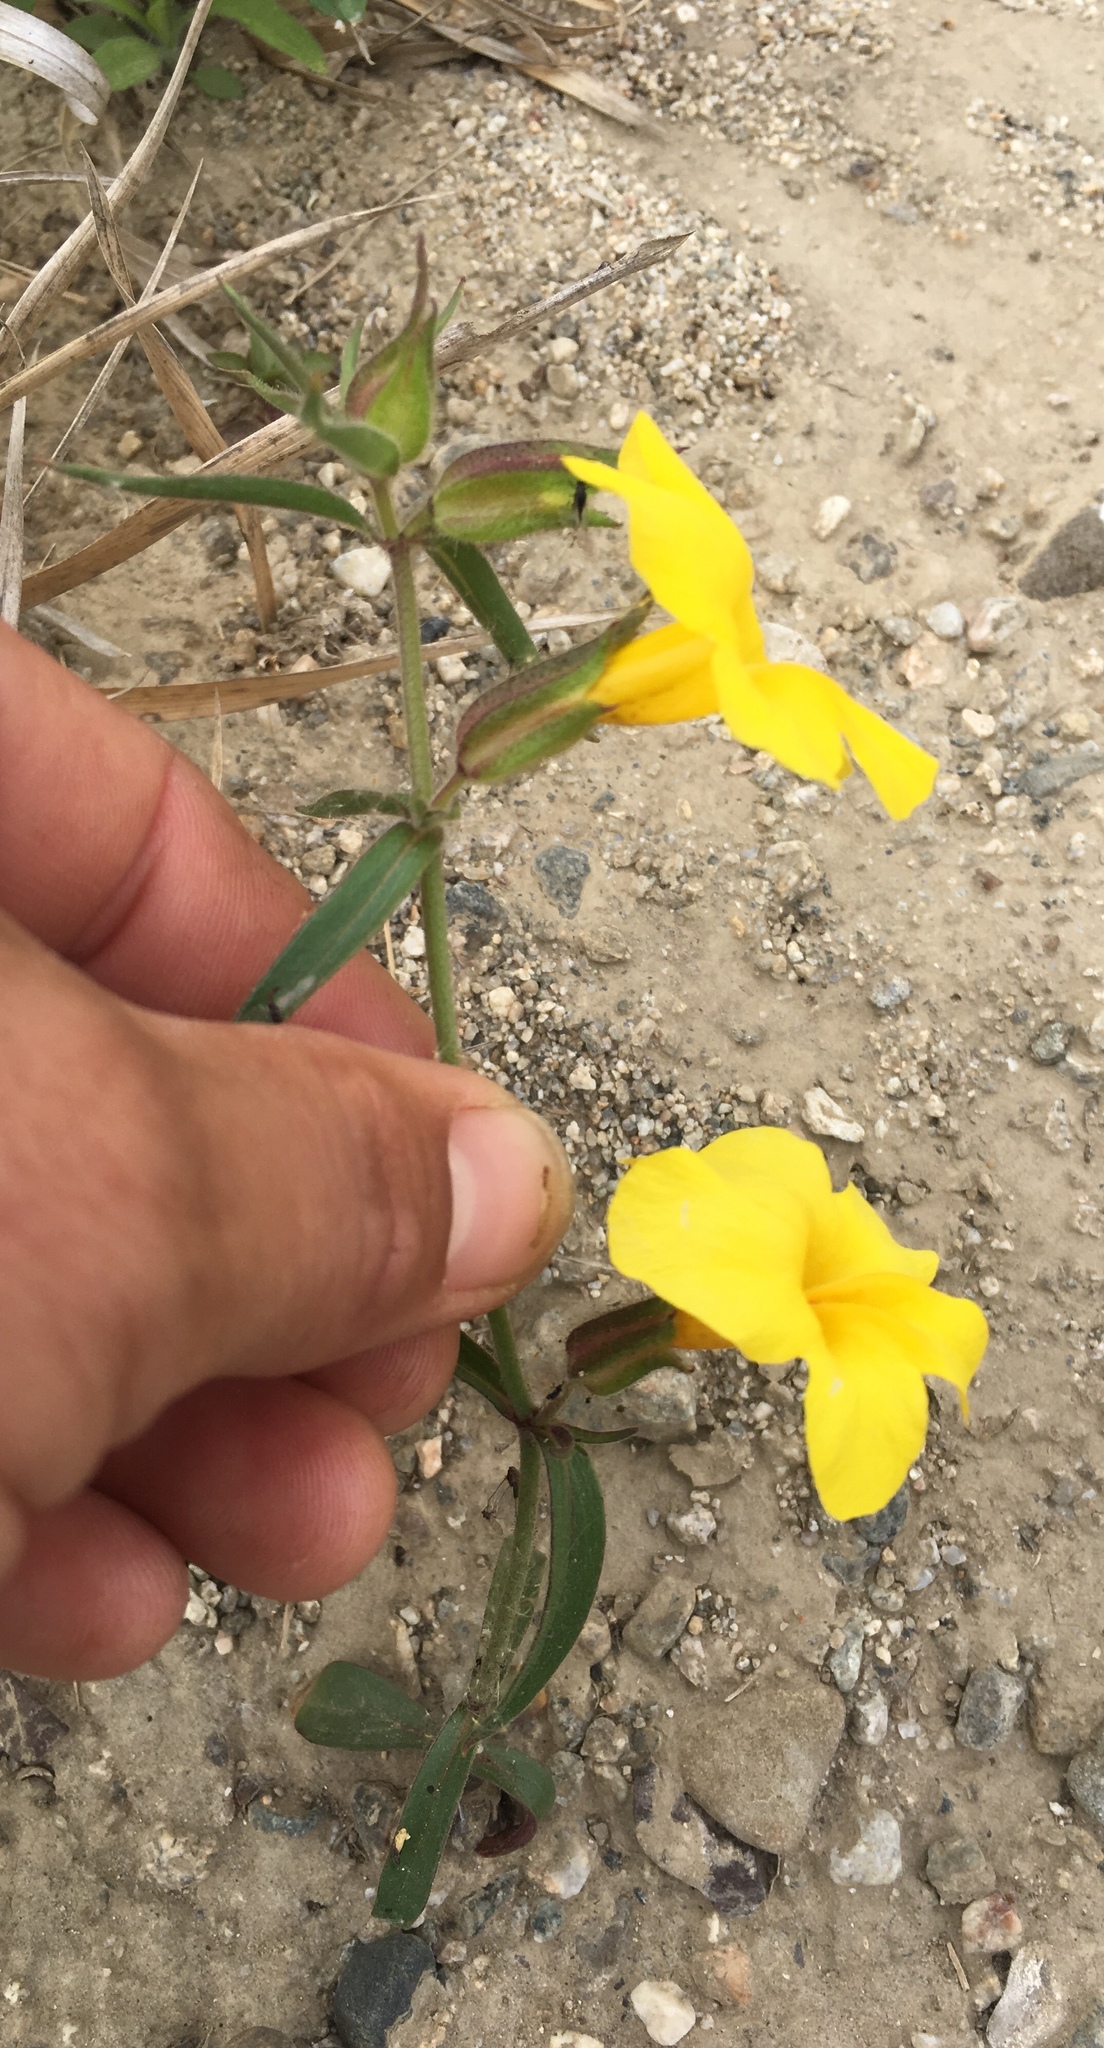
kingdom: Plantae
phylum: Tracheophyta
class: Magnoliopsida
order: Lamiales
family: Phrymaceae
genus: Diplacus
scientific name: Diplacus brevipes
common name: Wide-throat yellow monkey-flower
